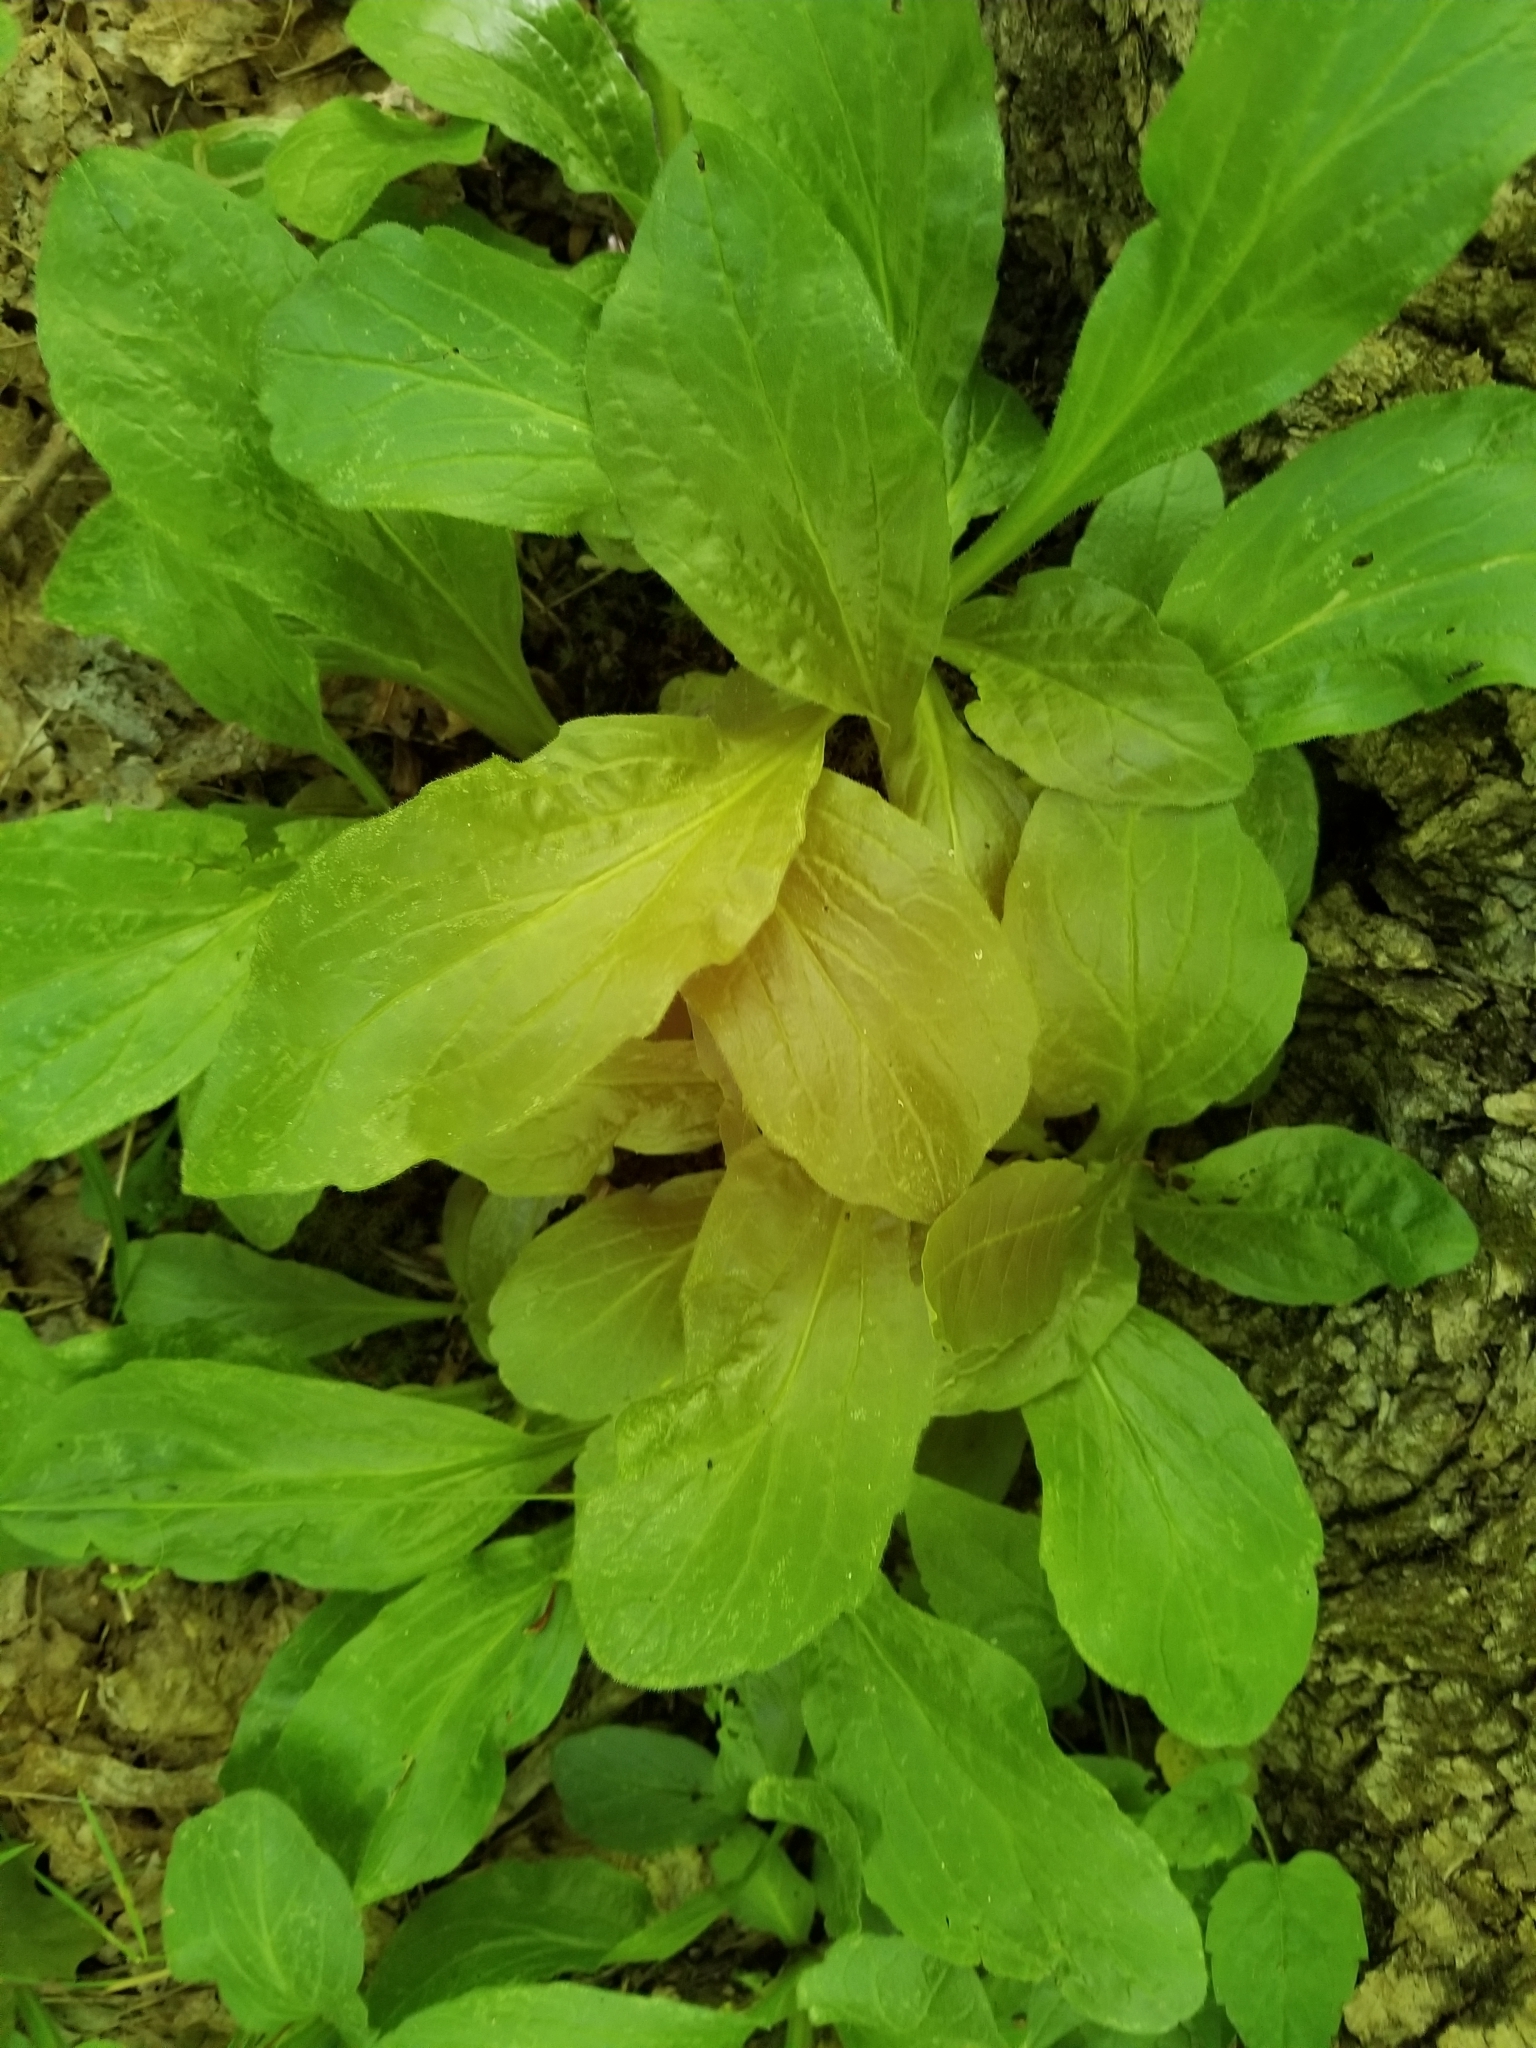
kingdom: Plantae
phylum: Tracheophyta
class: Magnoliopsida
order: Asterales
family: Asteraceae
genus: Erigeron
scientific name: Erigeron pulchellus
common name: Hairy fleabane
